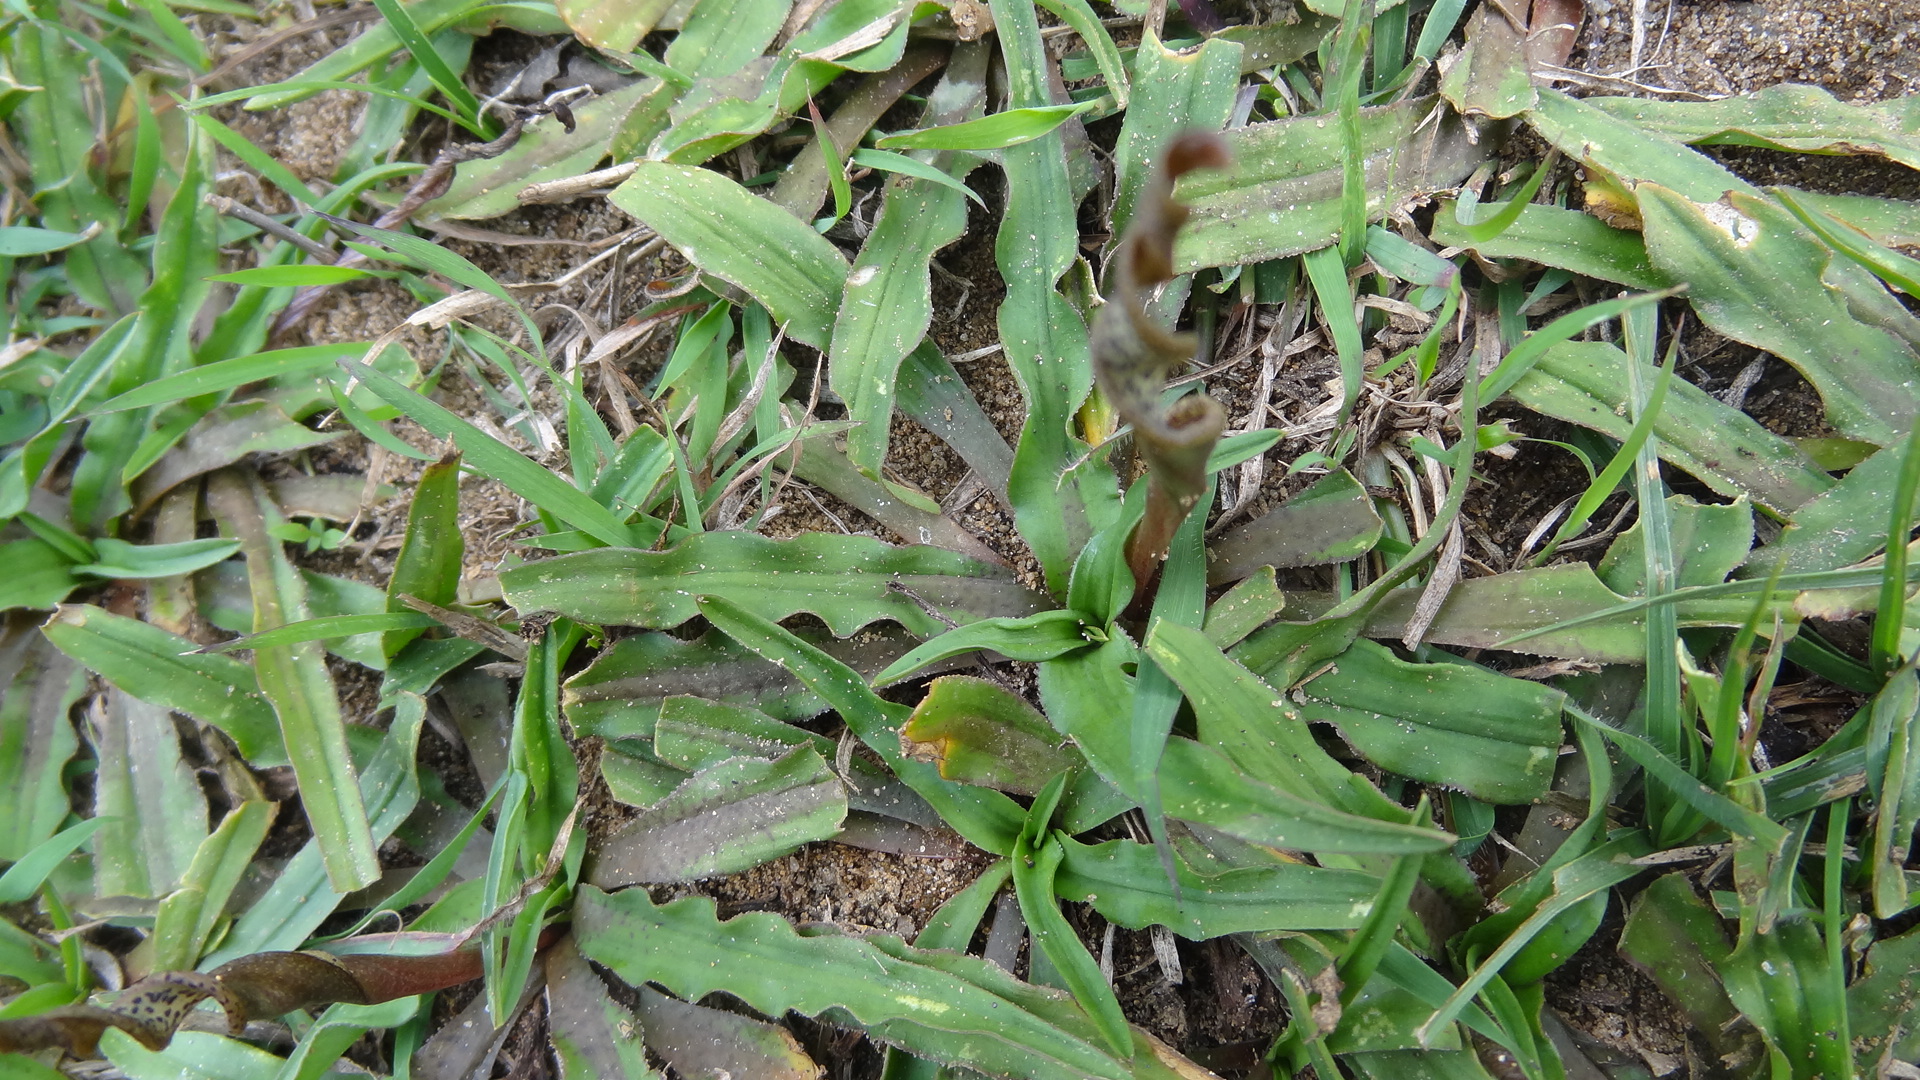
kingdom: Plantae
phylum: Tracheophyta
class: Liliopsida
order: Alismatales
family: Araceae
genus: Cryptocoryne
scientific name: Cryptocoryne retrospiralis
